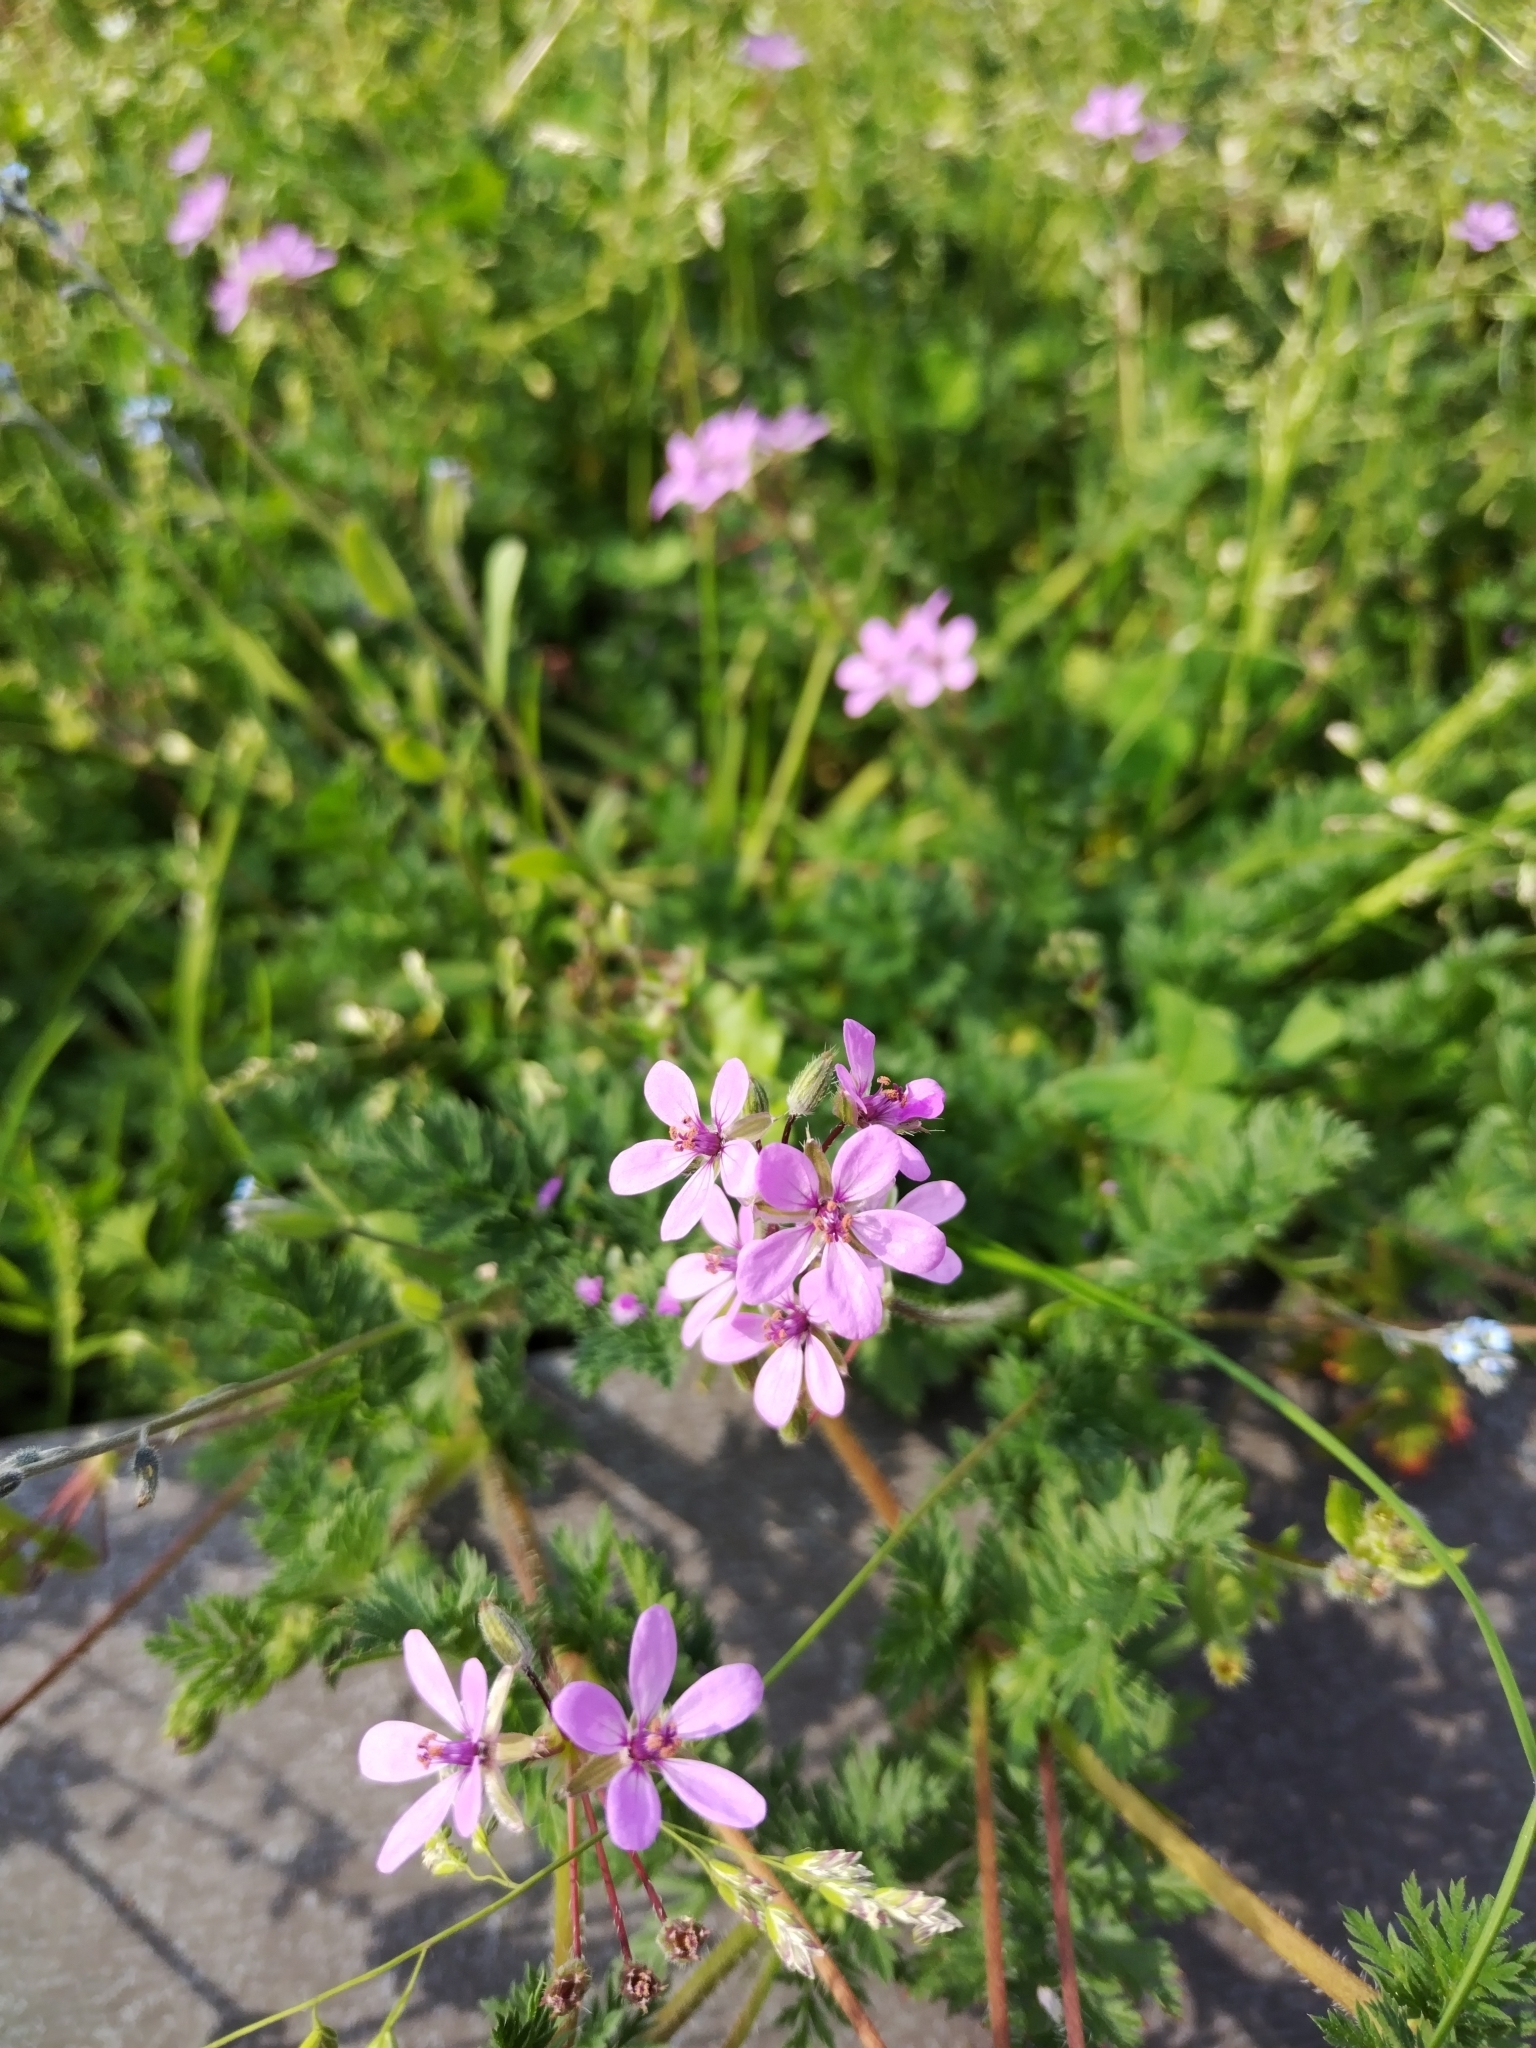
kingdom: Plantae
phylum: Tracheophyta
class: Magnoliopsida
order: Geraniales
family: Geraniaceae
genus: Erodium
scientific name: Erodium cicutarium
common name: Common stork's-bill
